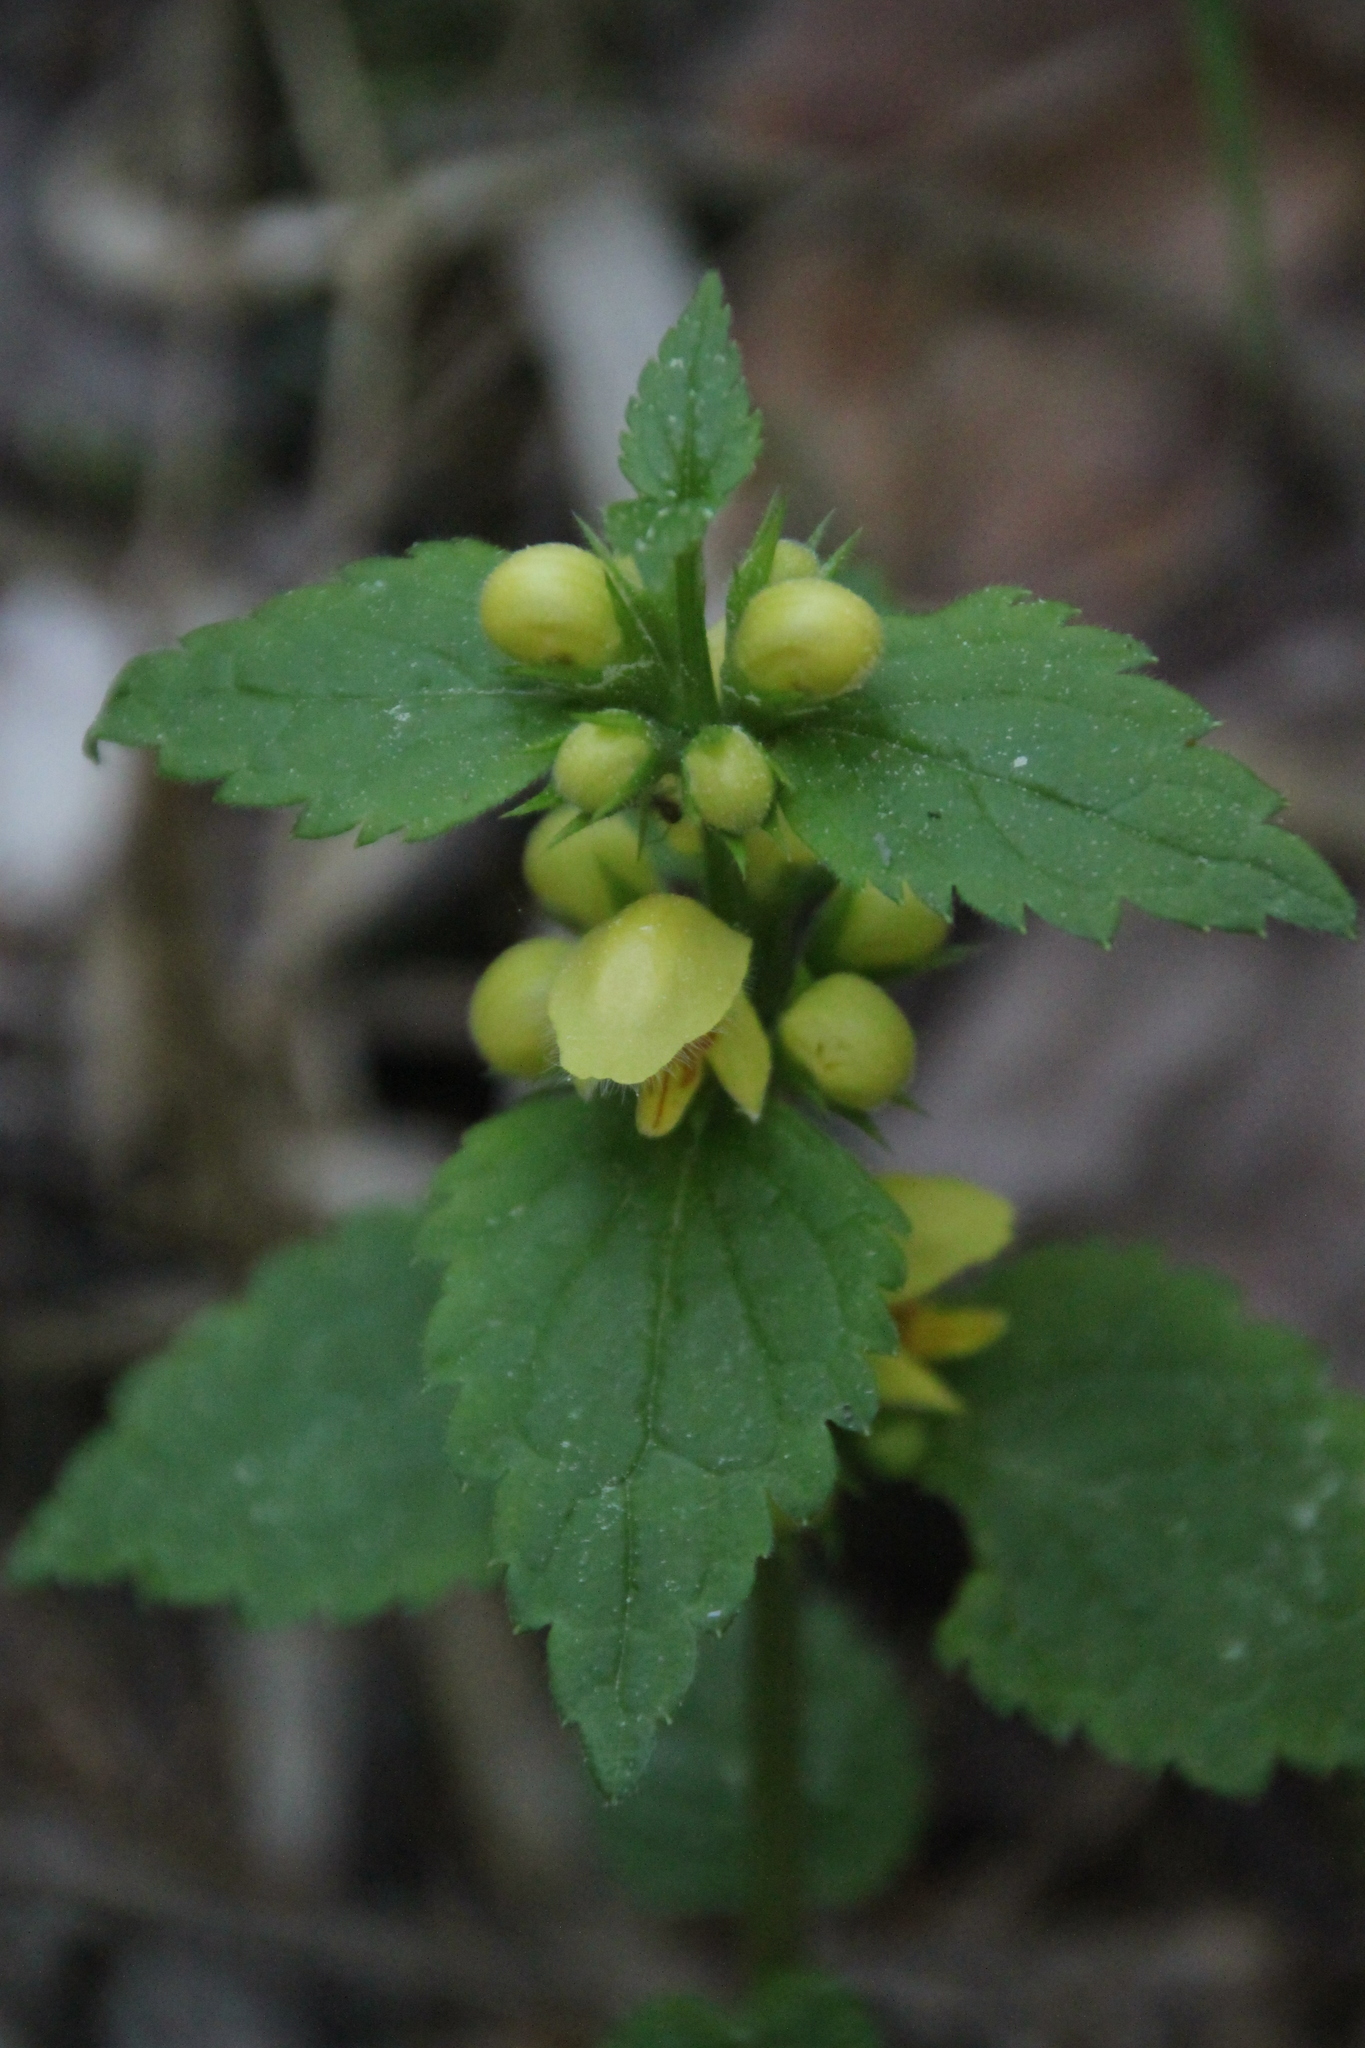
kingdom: Plantae
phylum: Tracheophyta
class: Magnoliopsida
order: Lamiales
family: Lamiaceae
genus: Lamium
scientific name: Lamium galeobdolon
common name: Yellow archangel
